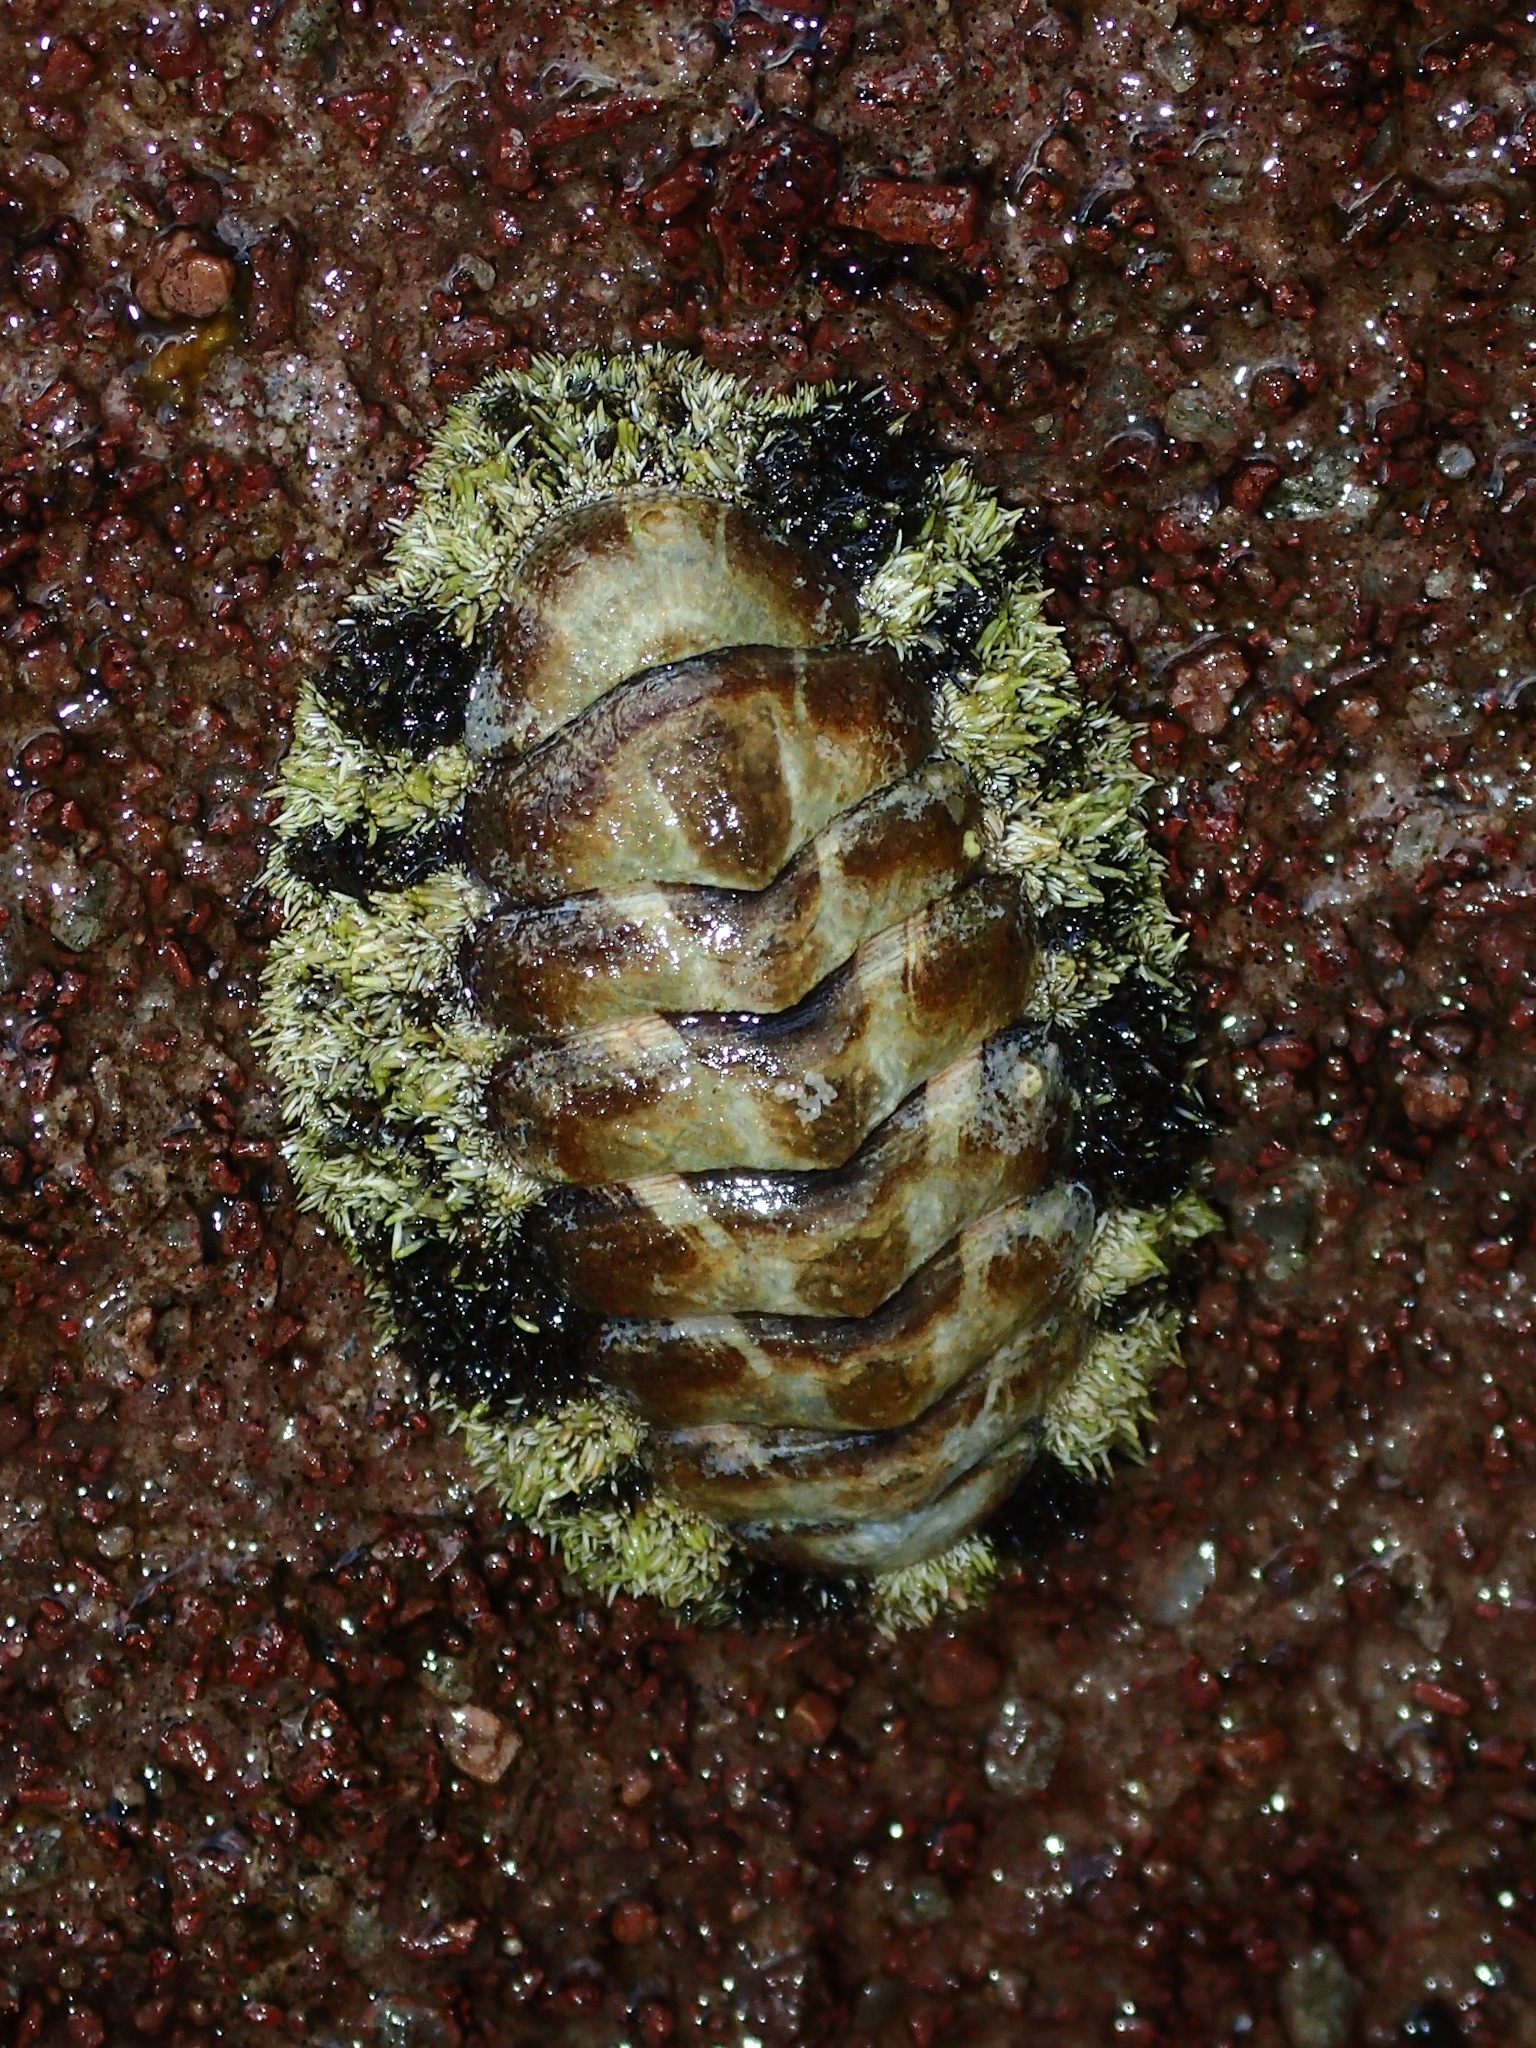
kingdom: Animalia
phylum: Mollusca
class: Polyplacophora
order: Chitonida
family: Chitonidae
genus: Acanthopleura
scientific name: Acanthopleura granulata
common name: West indian fuzzy chiton
